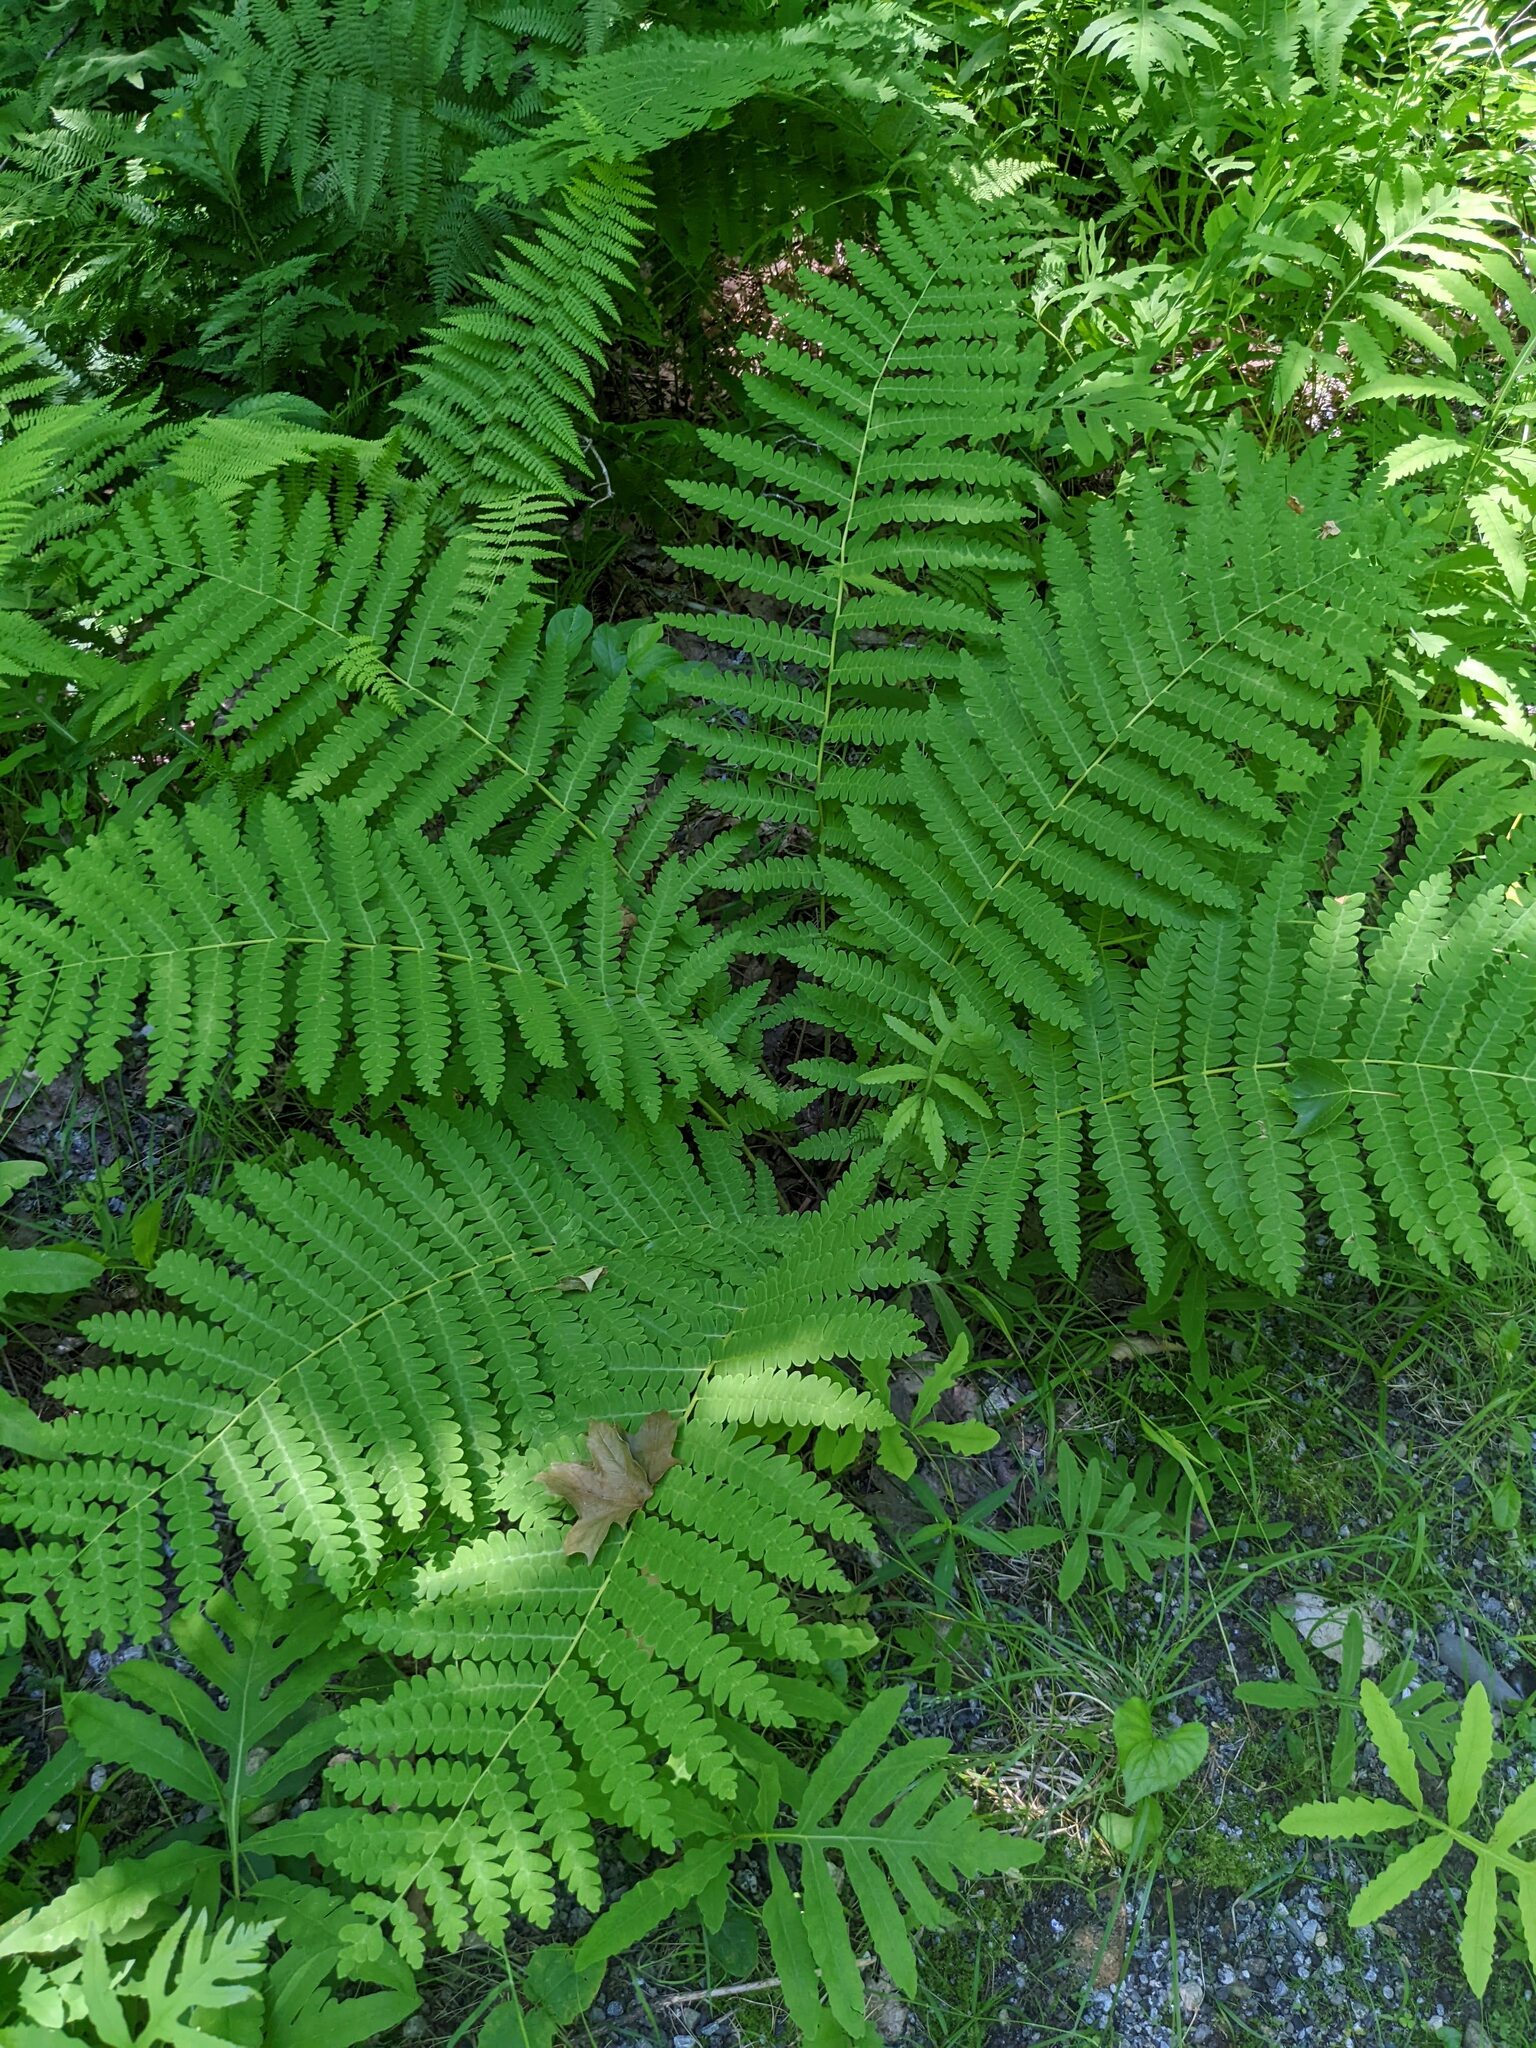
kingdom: Plantae
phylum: Tracheophyta
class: Polypodiopsida
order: Osmundales
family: Osmundaceae
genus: Claytosmunda
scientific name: Claytosmunda claytoniana
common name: Clayton's fern
